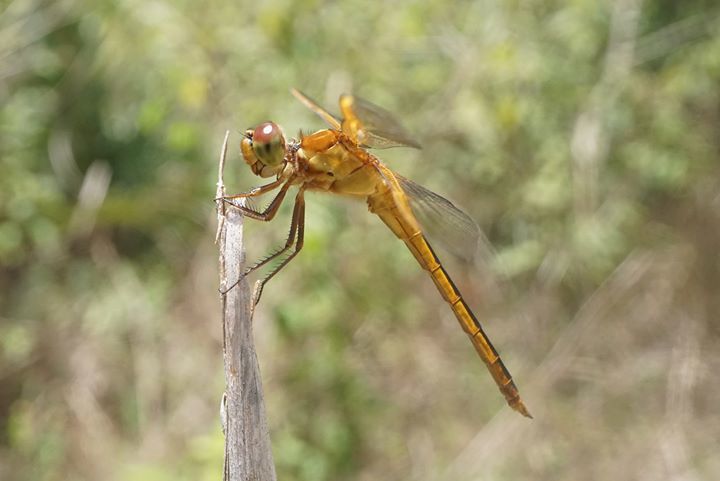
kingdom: Animalia
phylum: Arthropoda
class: Insecta
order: Odonata
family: Libellulidae
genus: Libellula
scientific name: Libellula needhami
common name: Needham's skimmer
